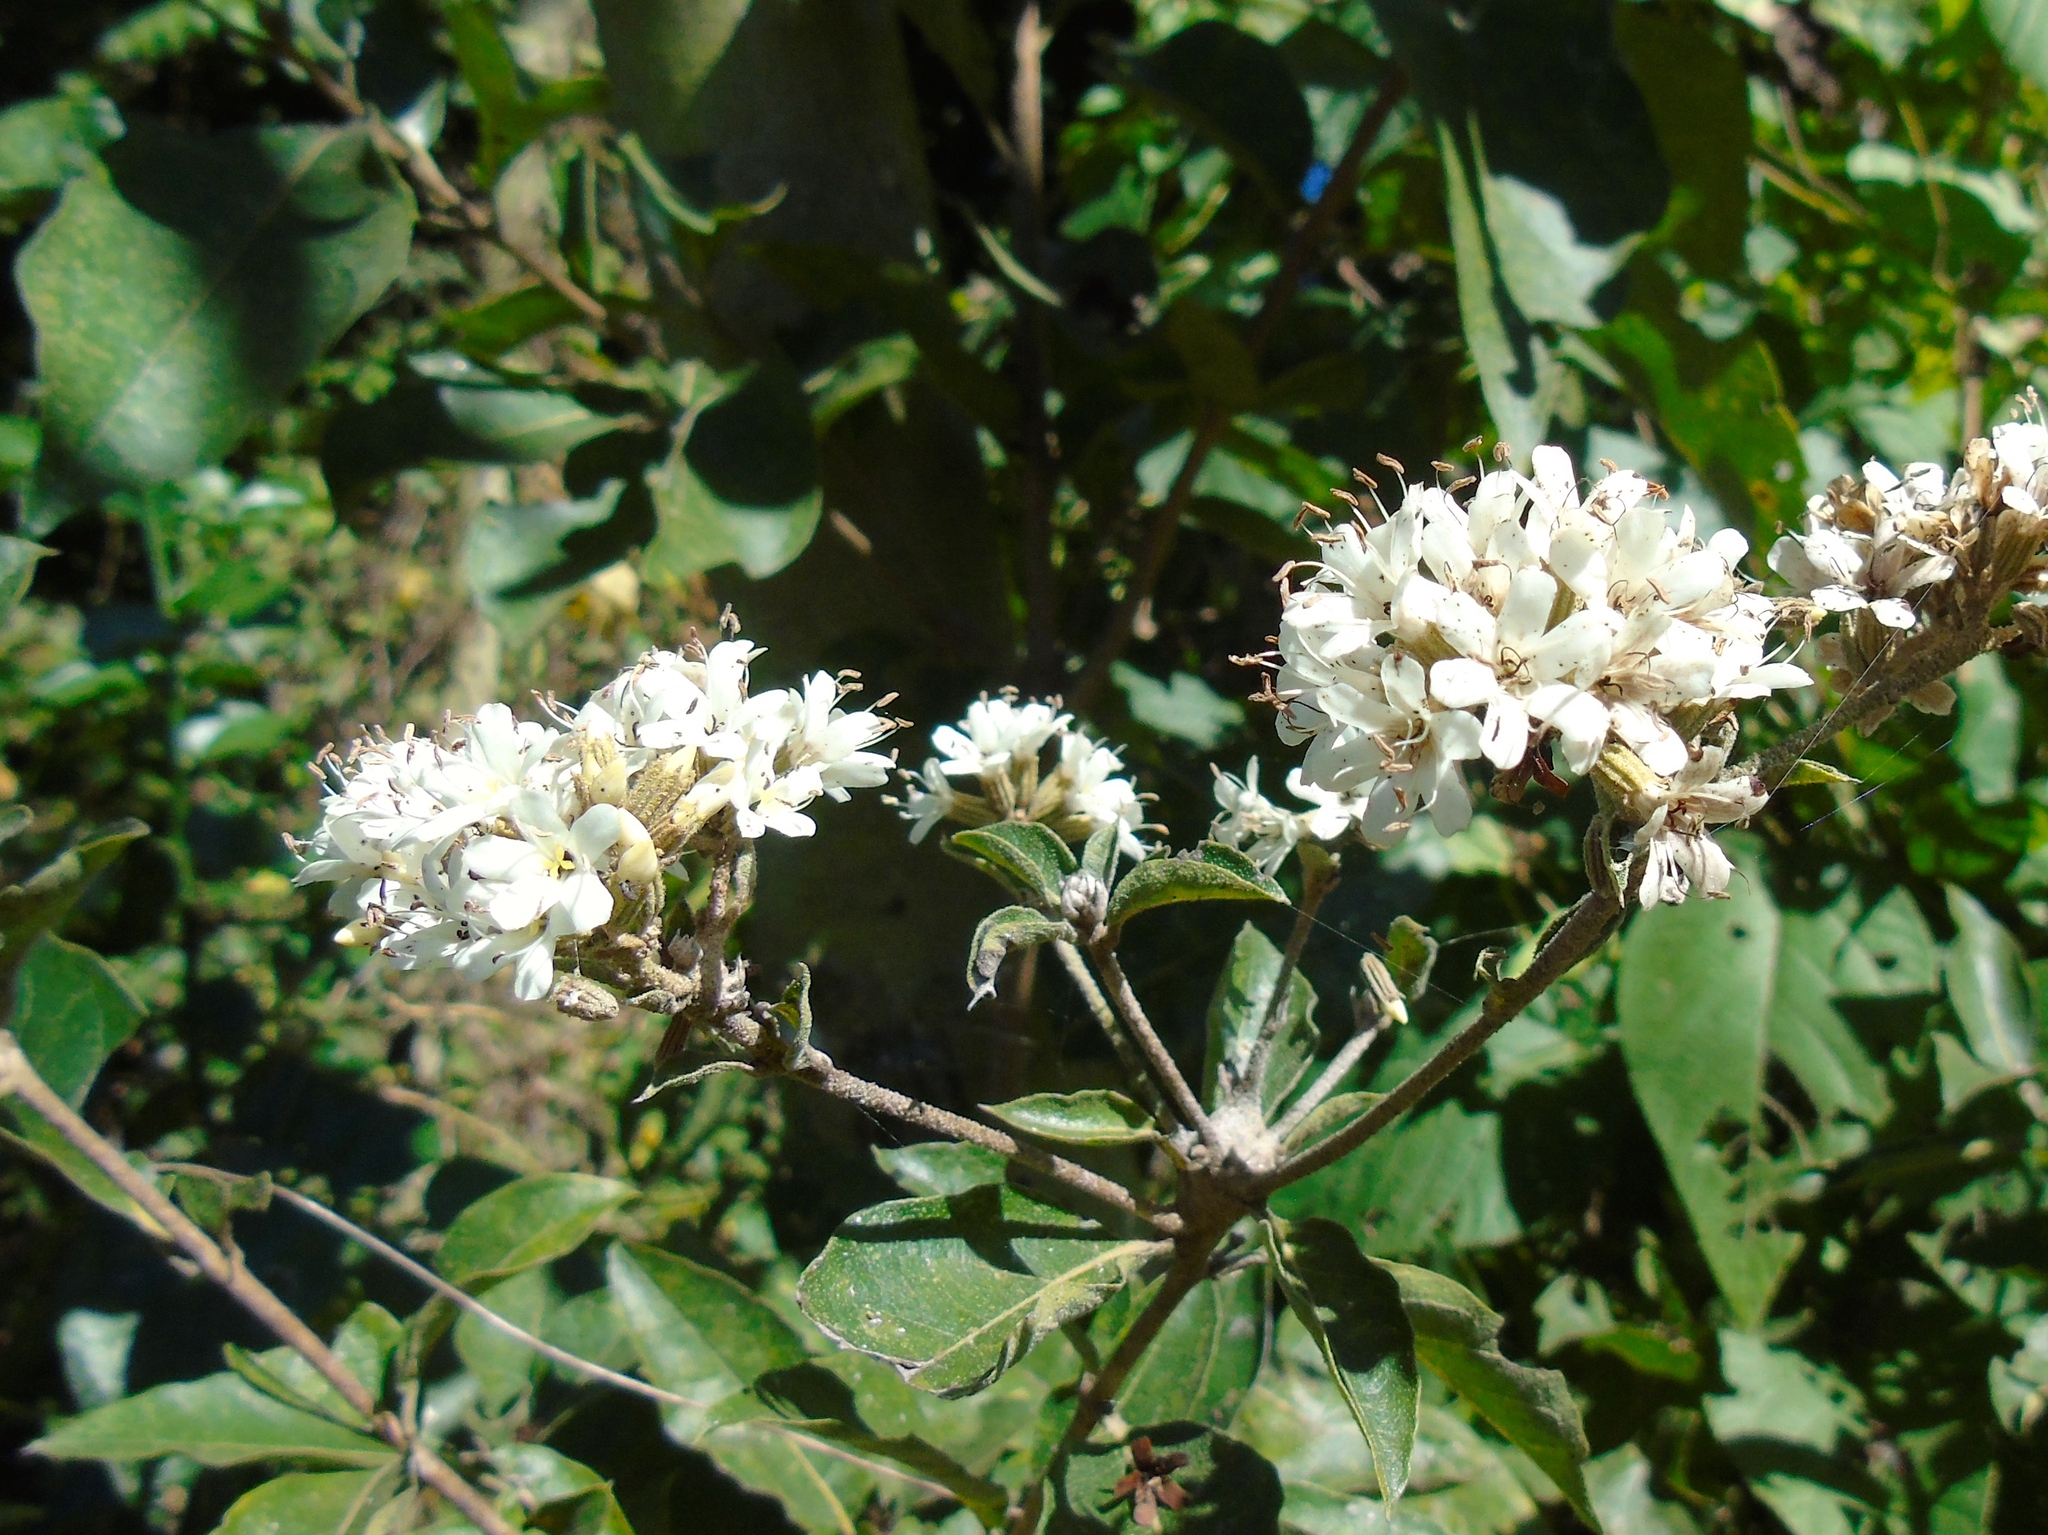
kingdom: Plantae
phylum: Tracheophyta
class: Magnoliopsida
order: Boraginales
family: Cordiaceae
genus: Cordia
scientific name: Cordia alliodora
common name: Spanish elm
